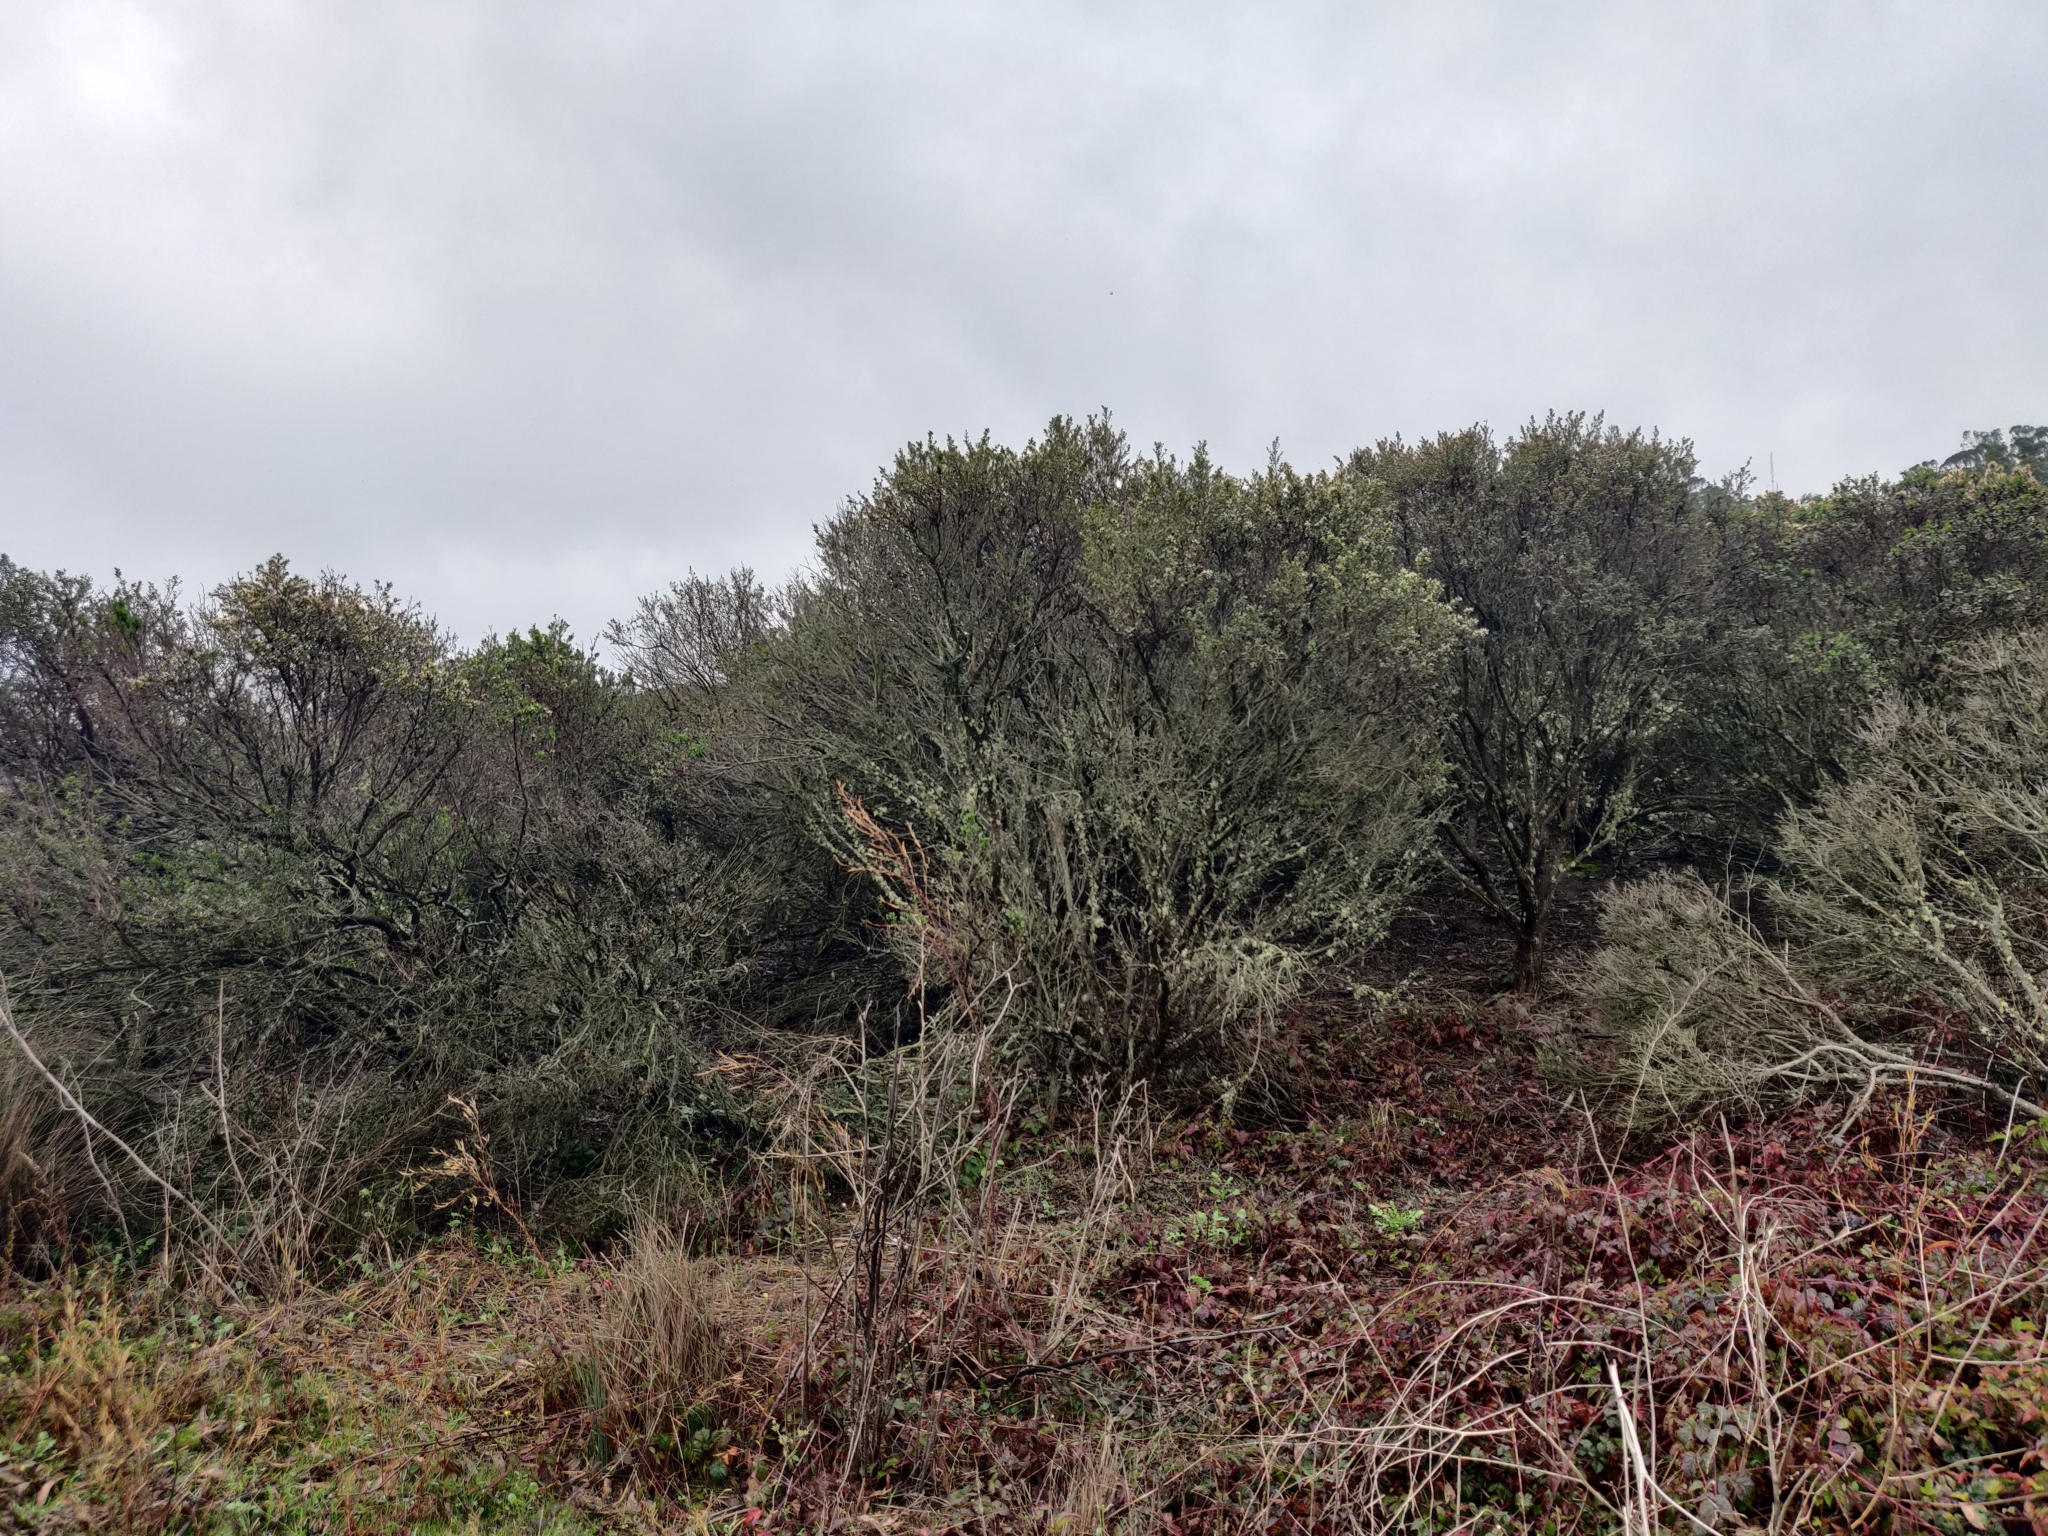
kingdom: Plantae
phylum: Tracheophyta
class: Magnoliopsida
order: Asterales
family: Asteraceae
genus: Baccharis
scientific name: Baccharis pilularis
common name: Coyotebrush
